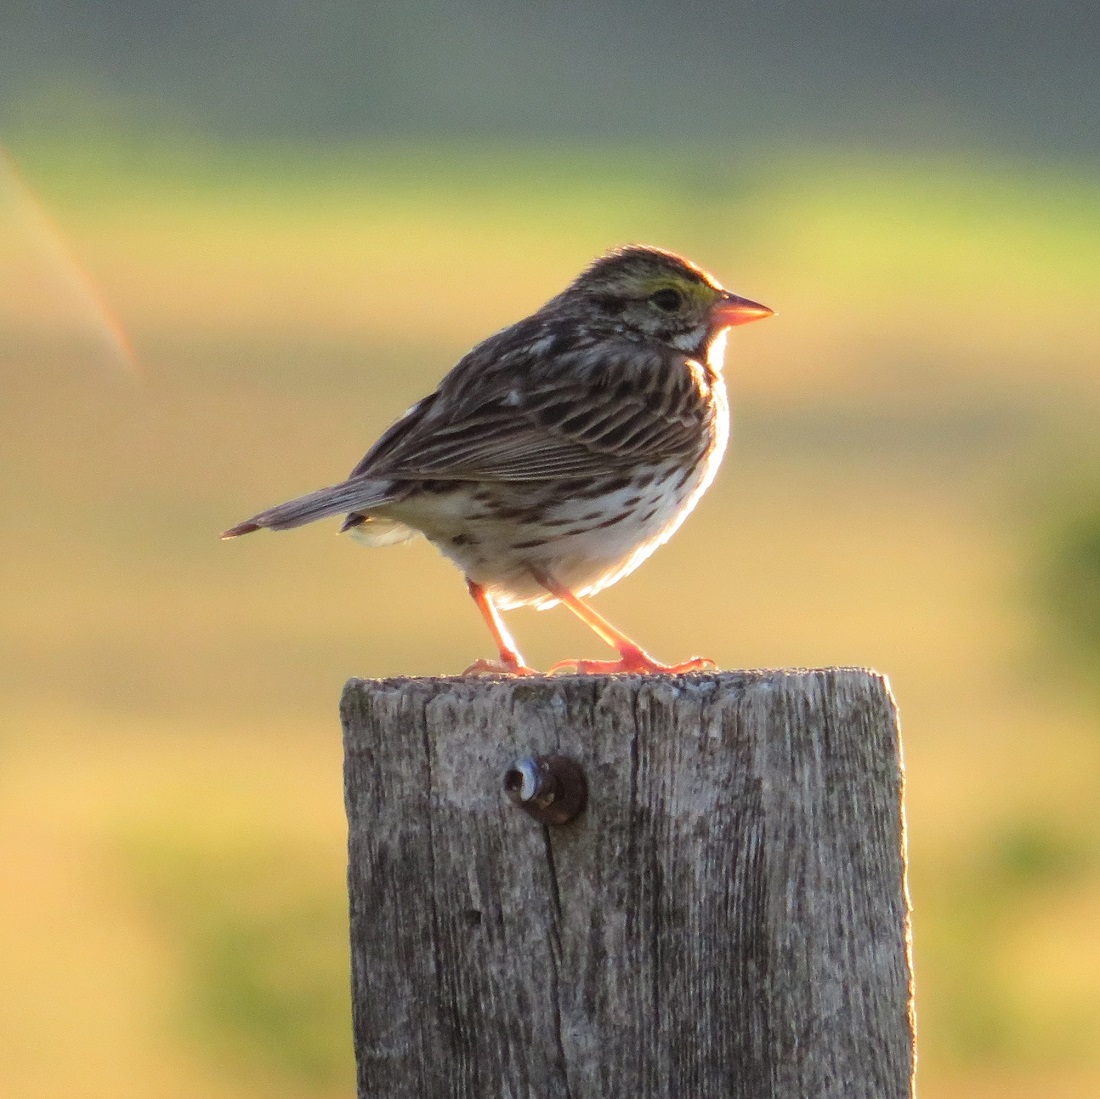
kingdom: Animalia
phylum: Chordata
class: Aves
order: Passeriformes
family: Passerellidae
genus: Passerculus
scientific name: Passerculus sandwichensis
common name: Savannah sparrow
